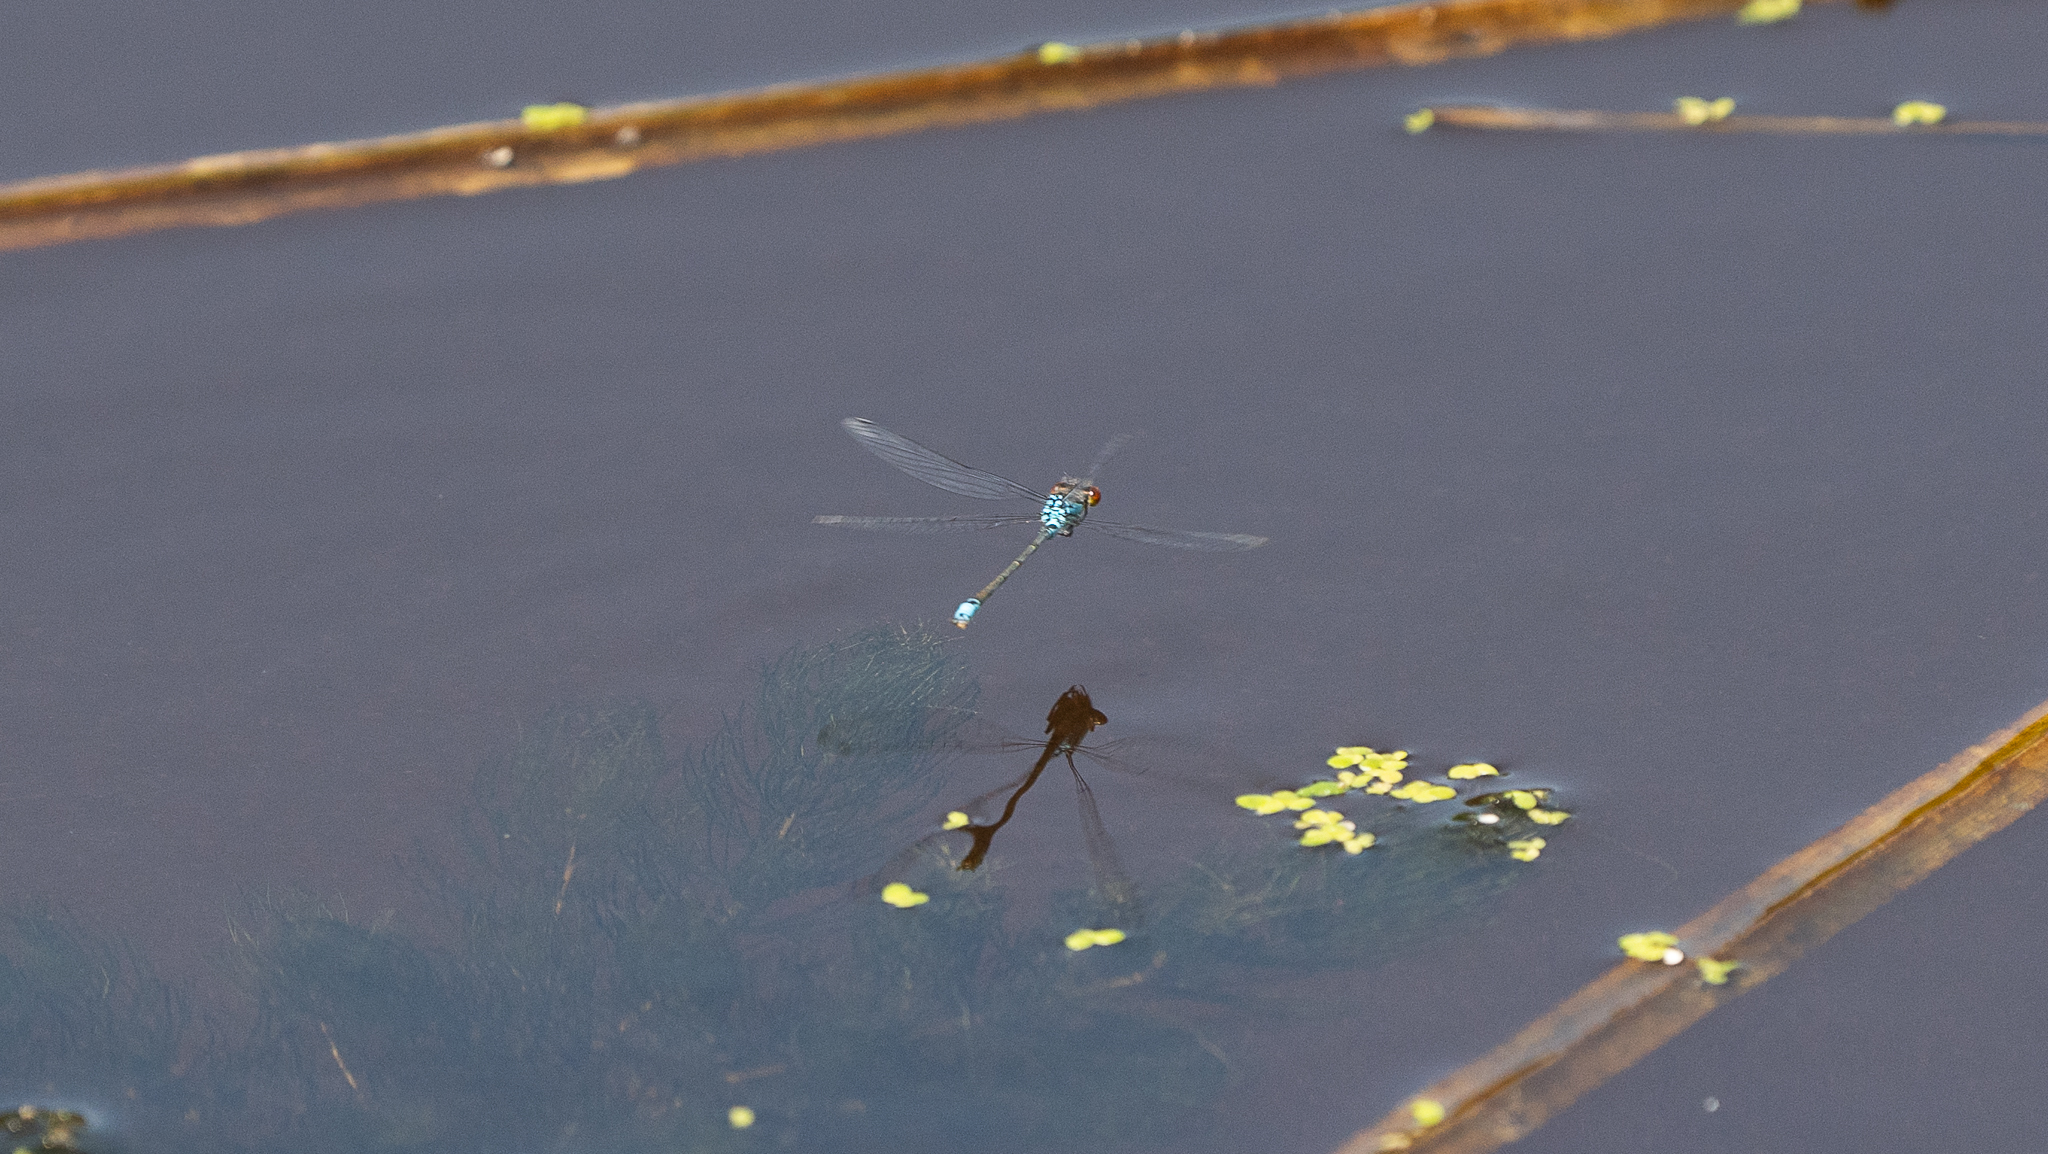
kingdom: Animalia
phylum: Arthropoda
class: Insecta
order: Odonata
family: Coenagrionidae
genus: Erythromma
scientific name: Erythromma viridulum
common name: Small red-eyed damselfly
